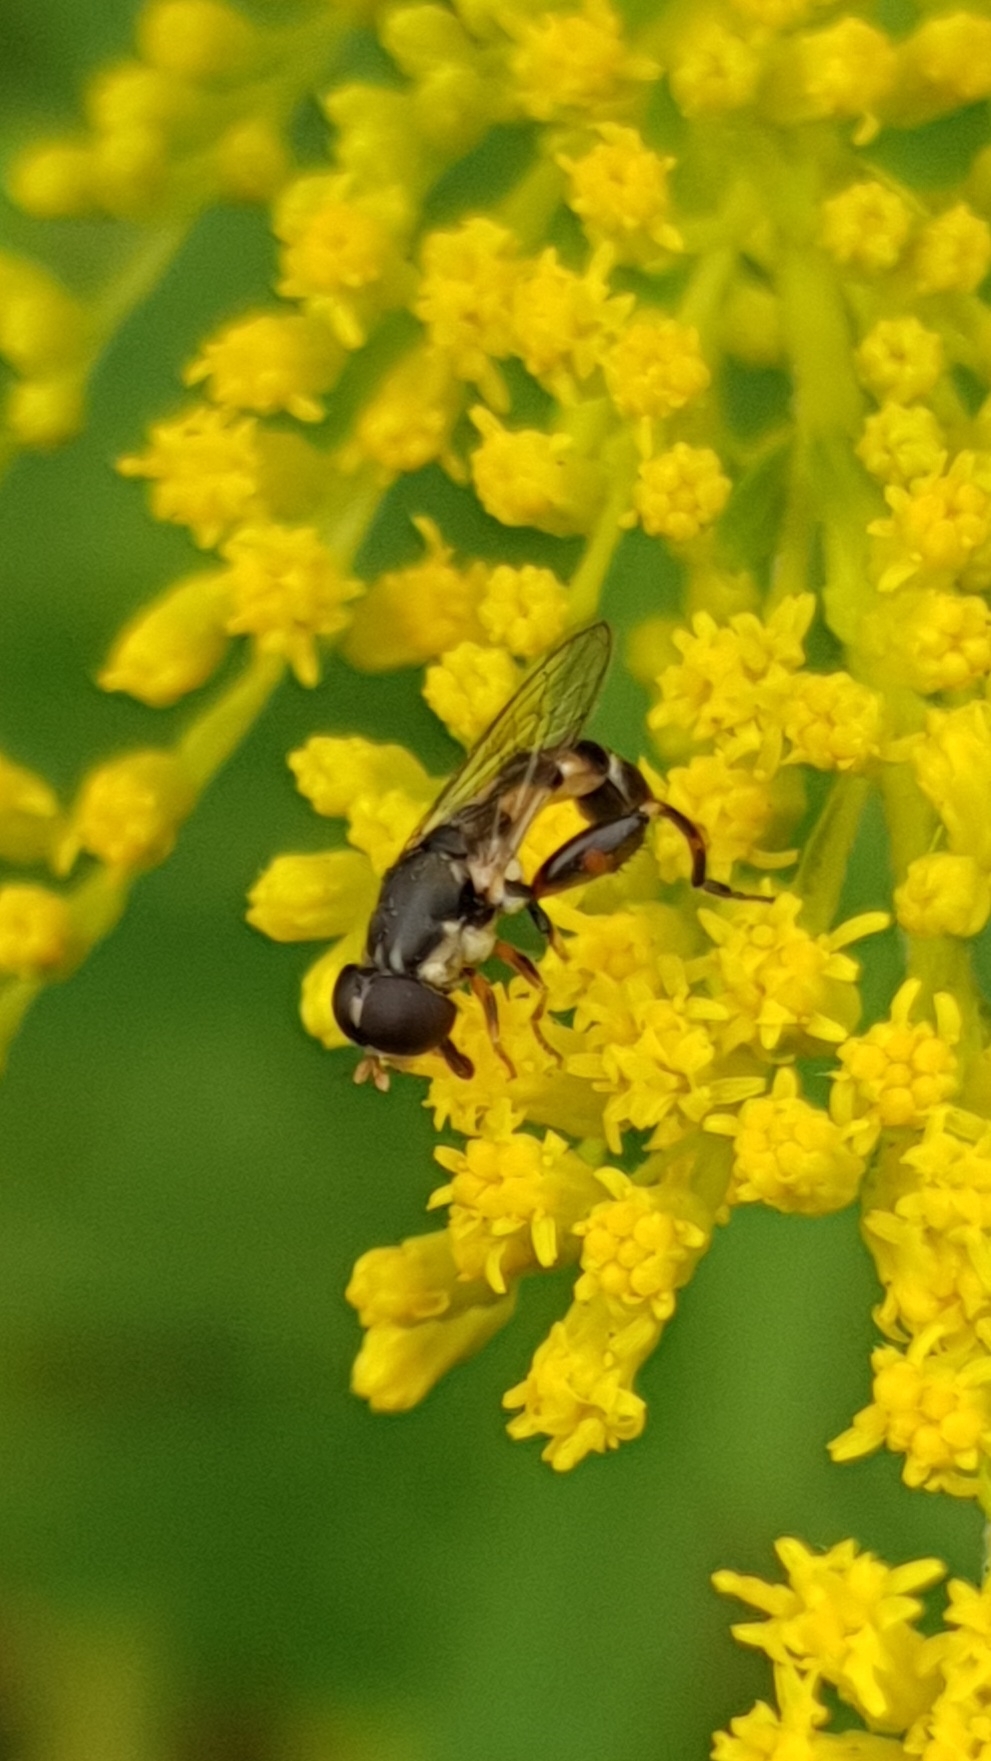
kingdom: Animalia
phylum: Arthropoda
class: Insecta
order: Diptera
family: Syrphidae
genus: Syritta
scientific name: Syritta pipiens
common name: Hover fly
